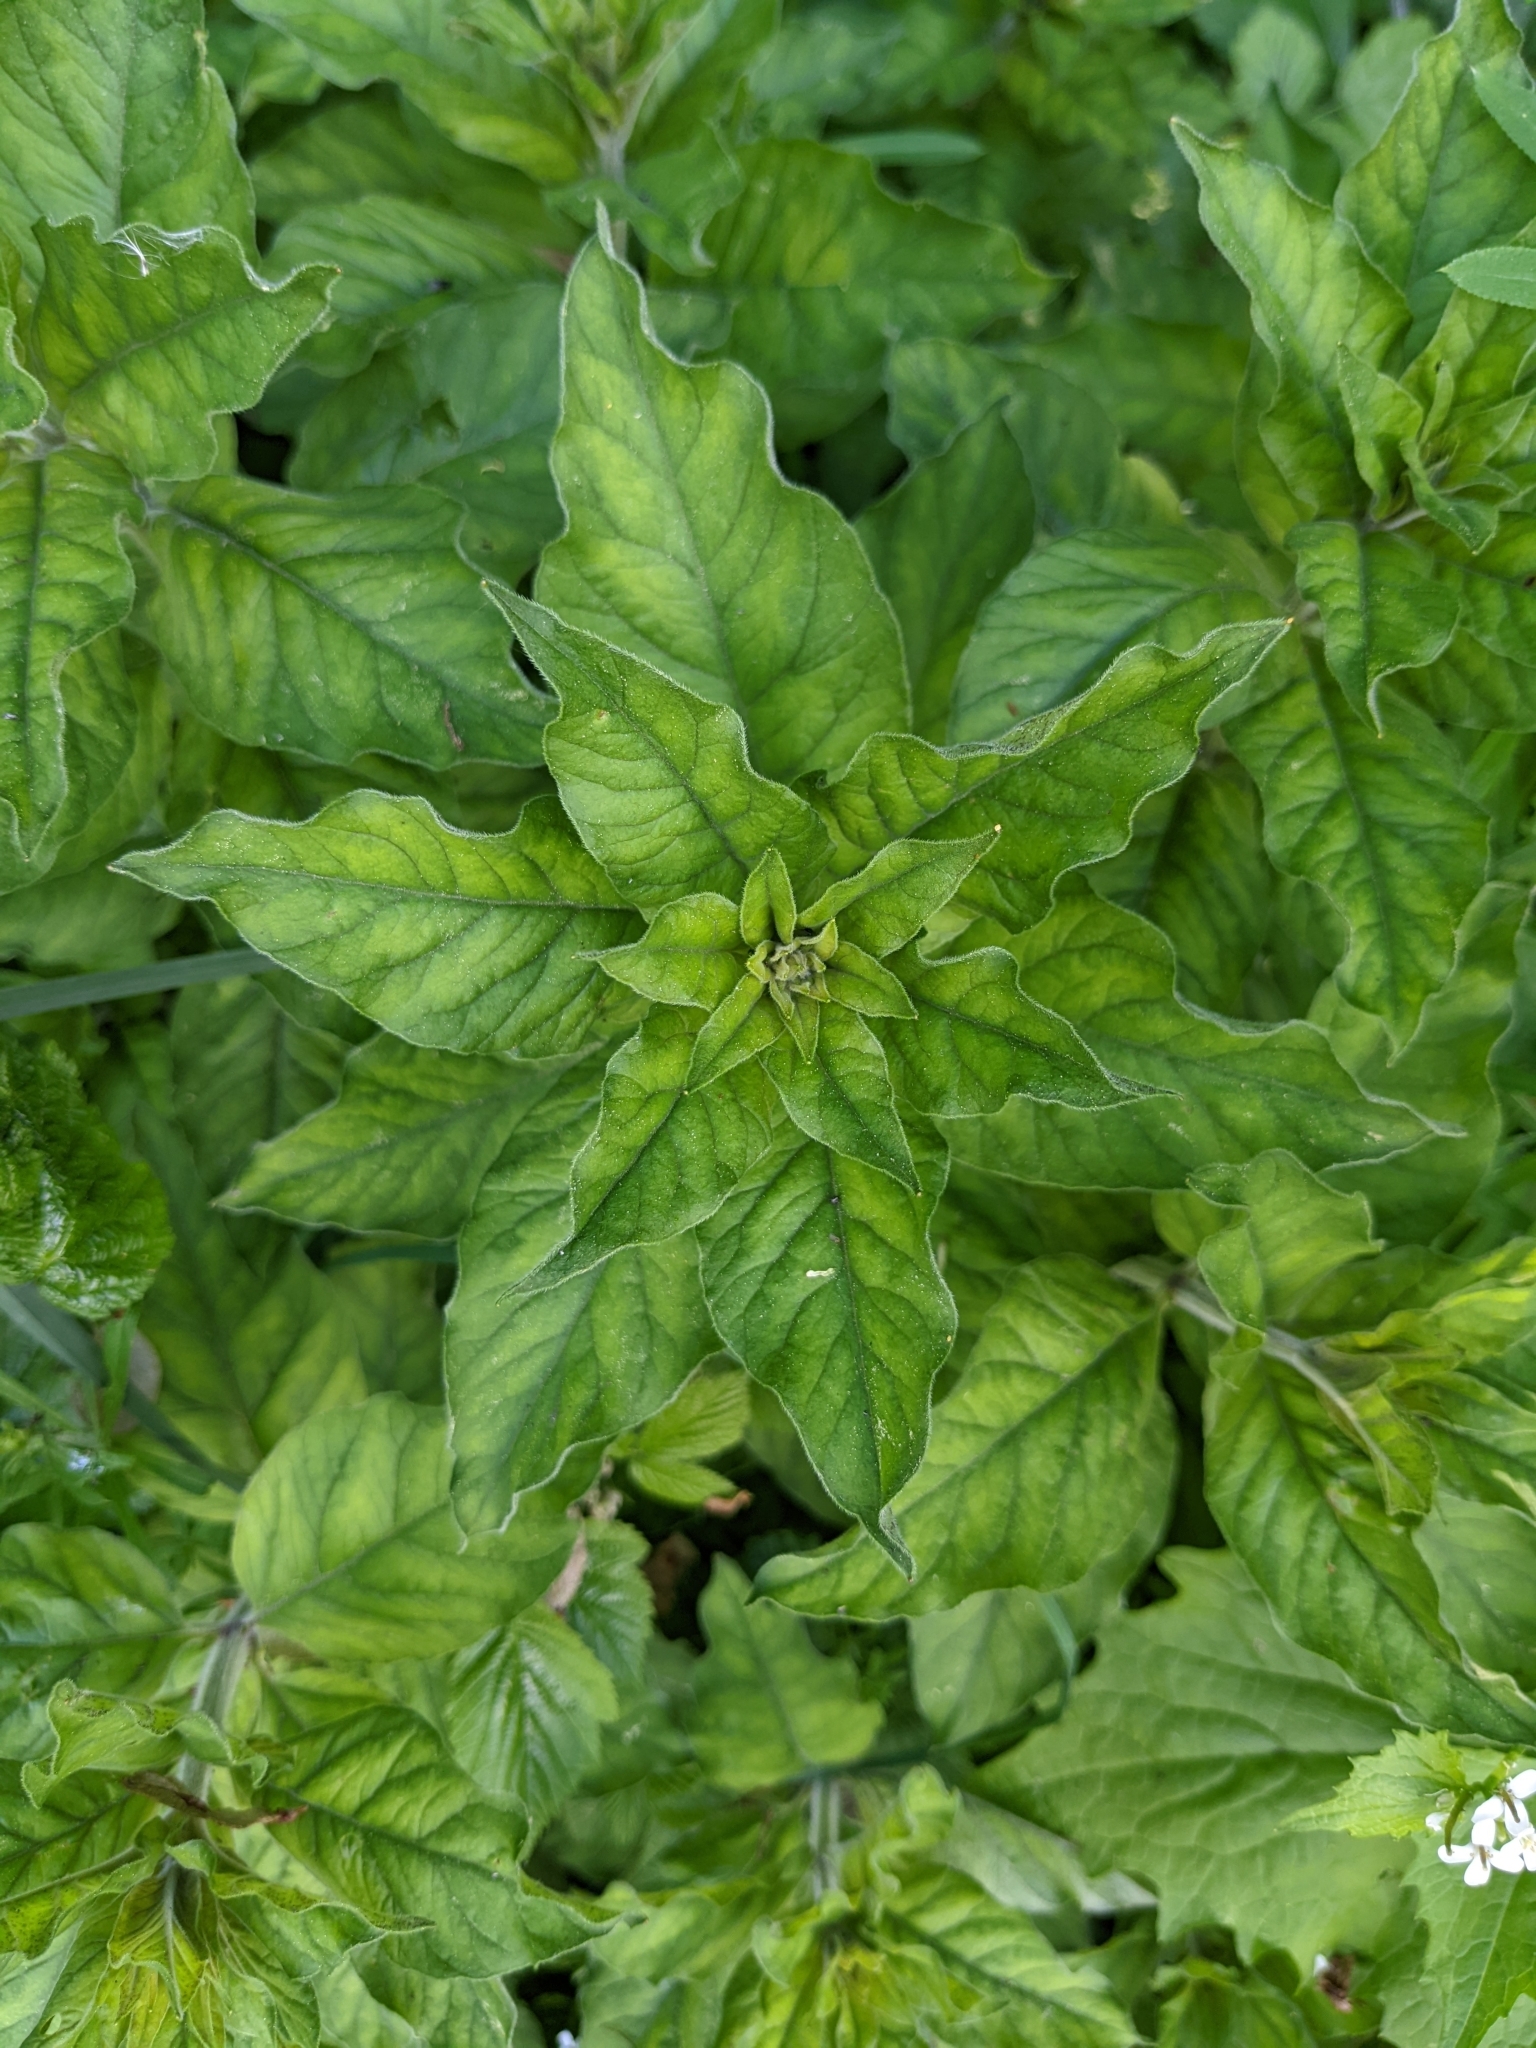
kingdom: Plantae
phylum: Tracheophyta
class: Magnoliopsida
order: Ericales
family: Primulaceae
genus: Lysimachia
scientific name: Lysimachia punctata
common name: Dotted loosestrife
